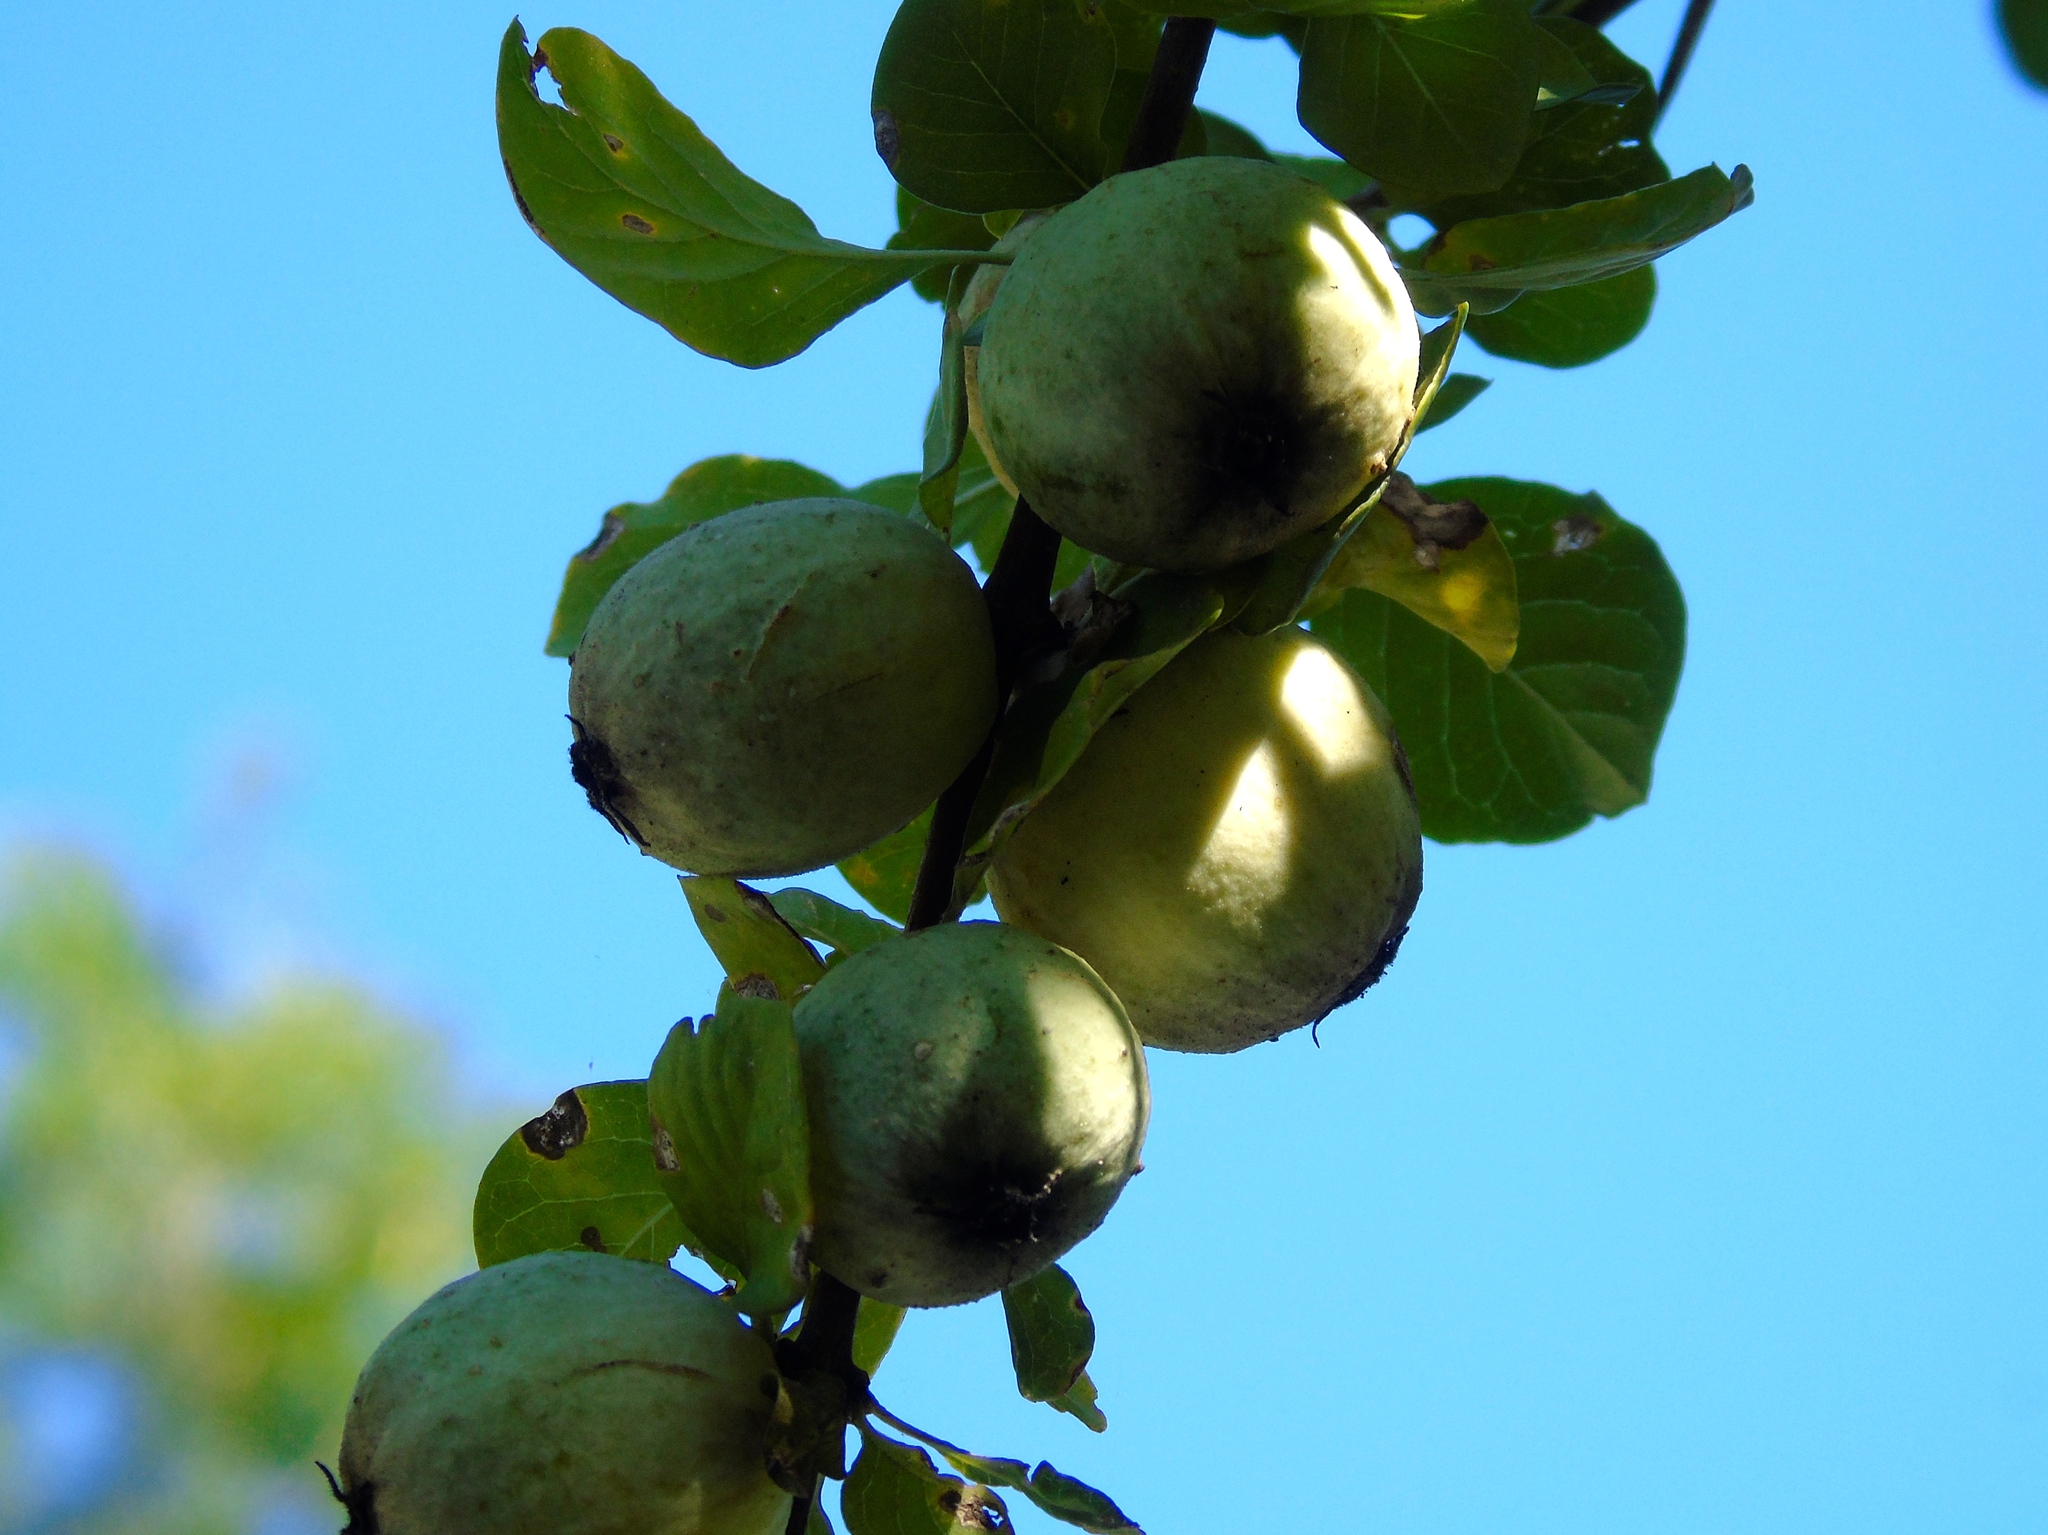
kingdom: Plantae
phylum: Tracheophyta
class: Magnoliopsida
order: Gentianales
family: Rubiaceae
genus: Randia
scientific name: Randia
